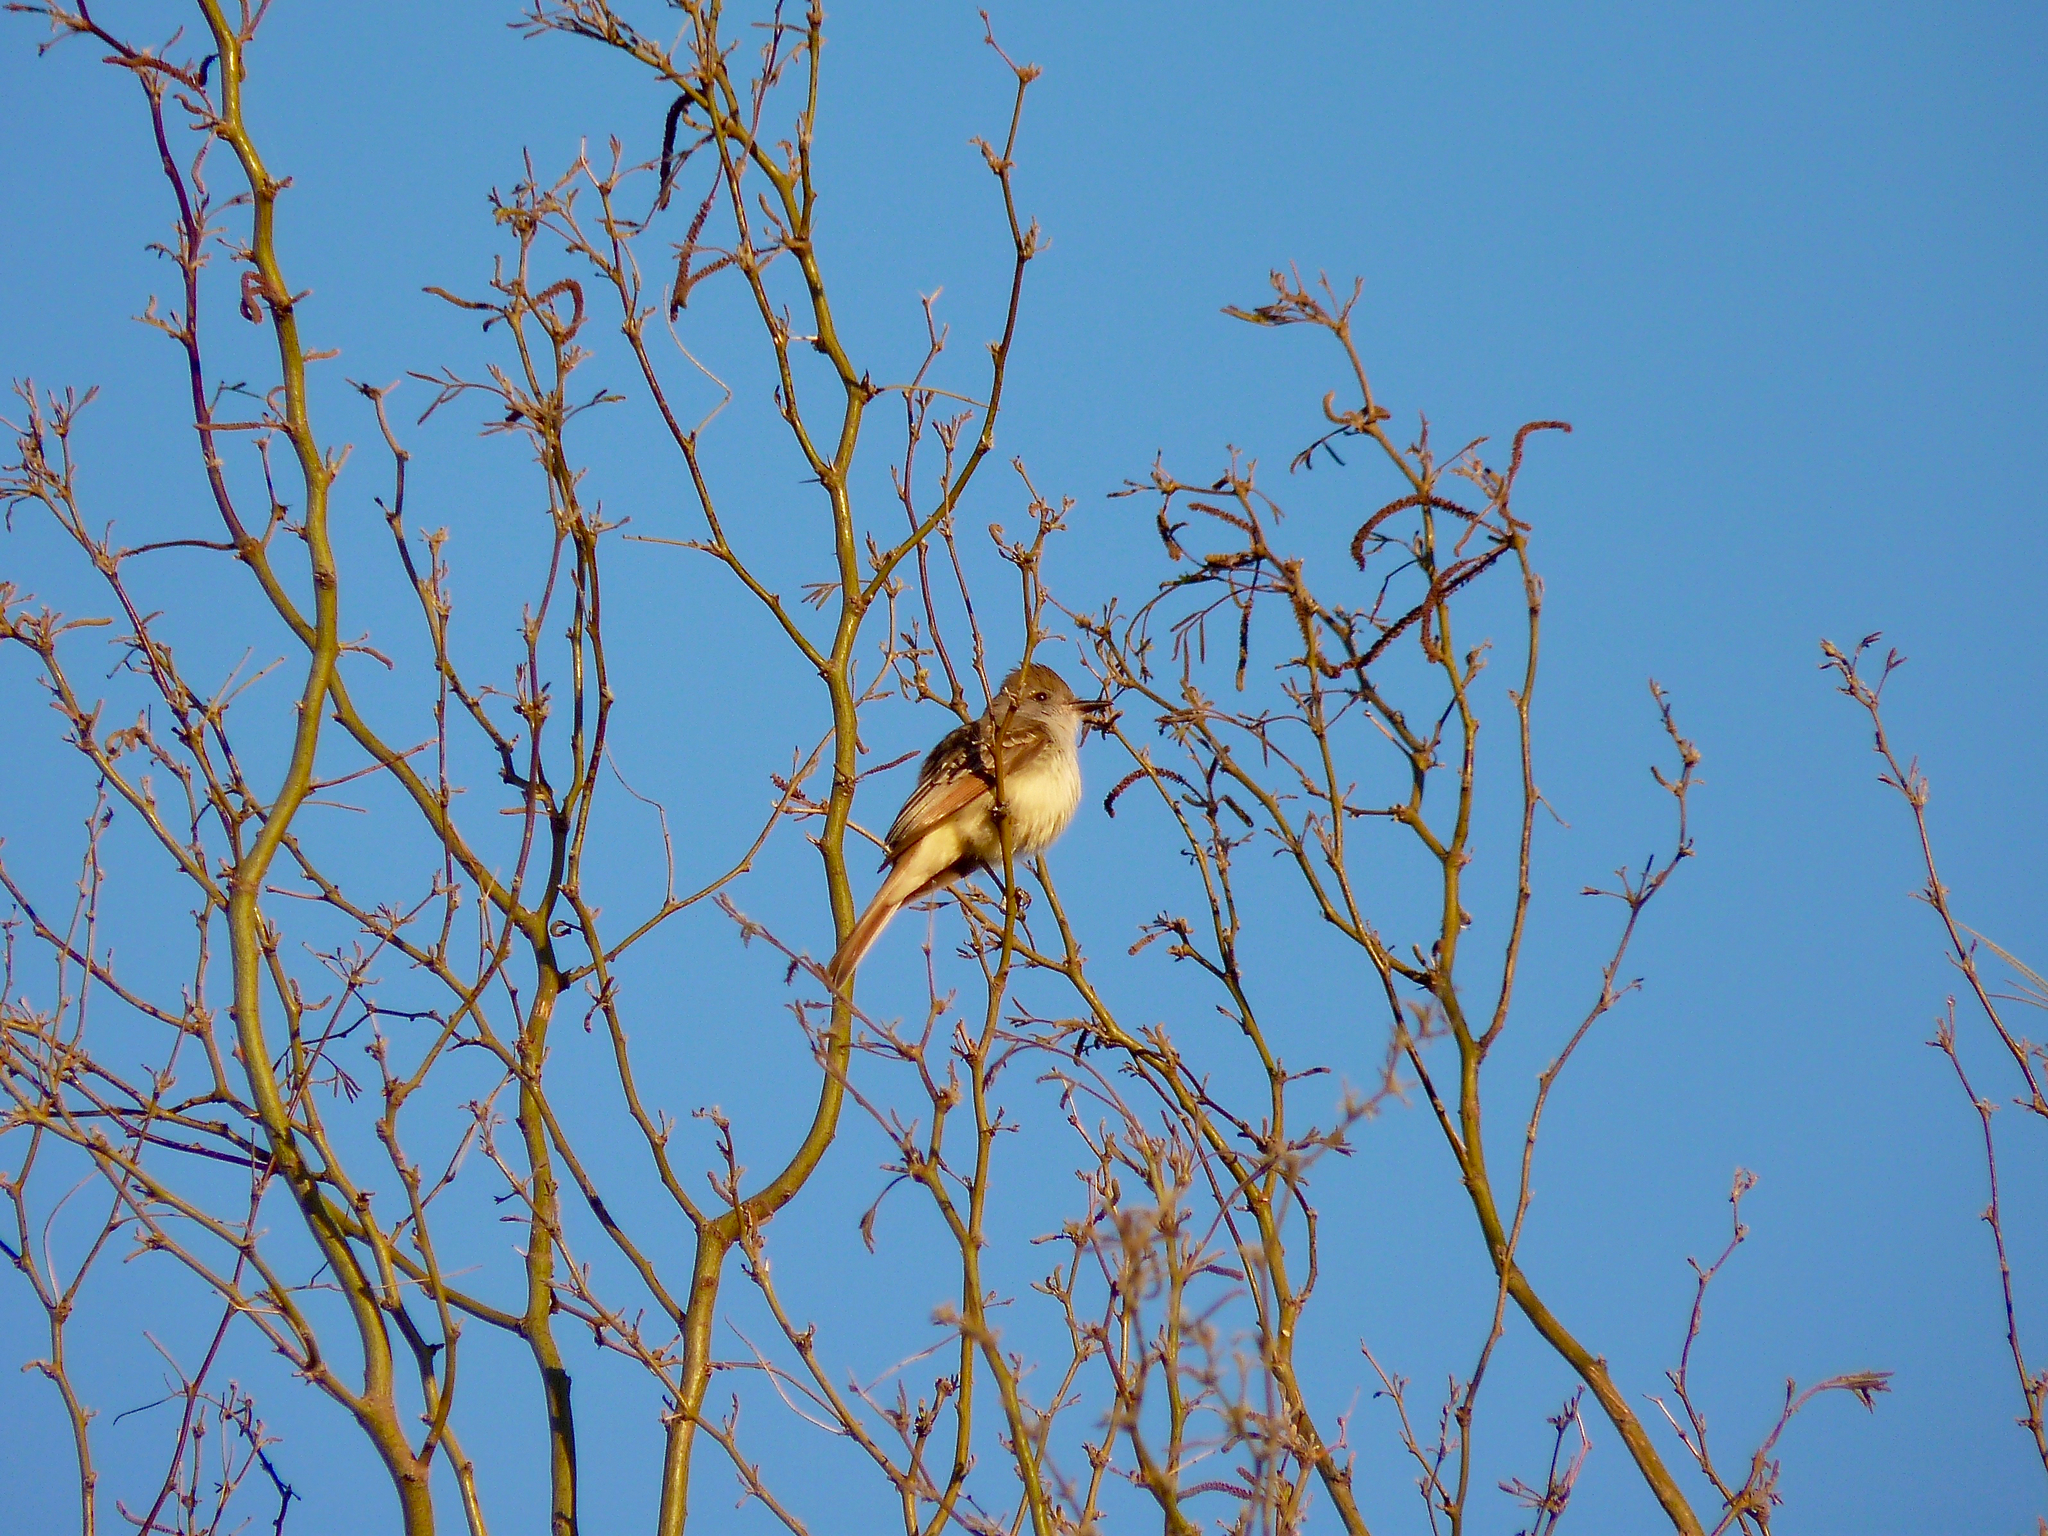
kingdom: Animalia
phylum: Chordata
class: Aves
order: Passeriformes
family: Tyrannidae
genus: Myiarchus
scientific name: Myiarchus cinerascens
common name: Ash-throated flycatcher
